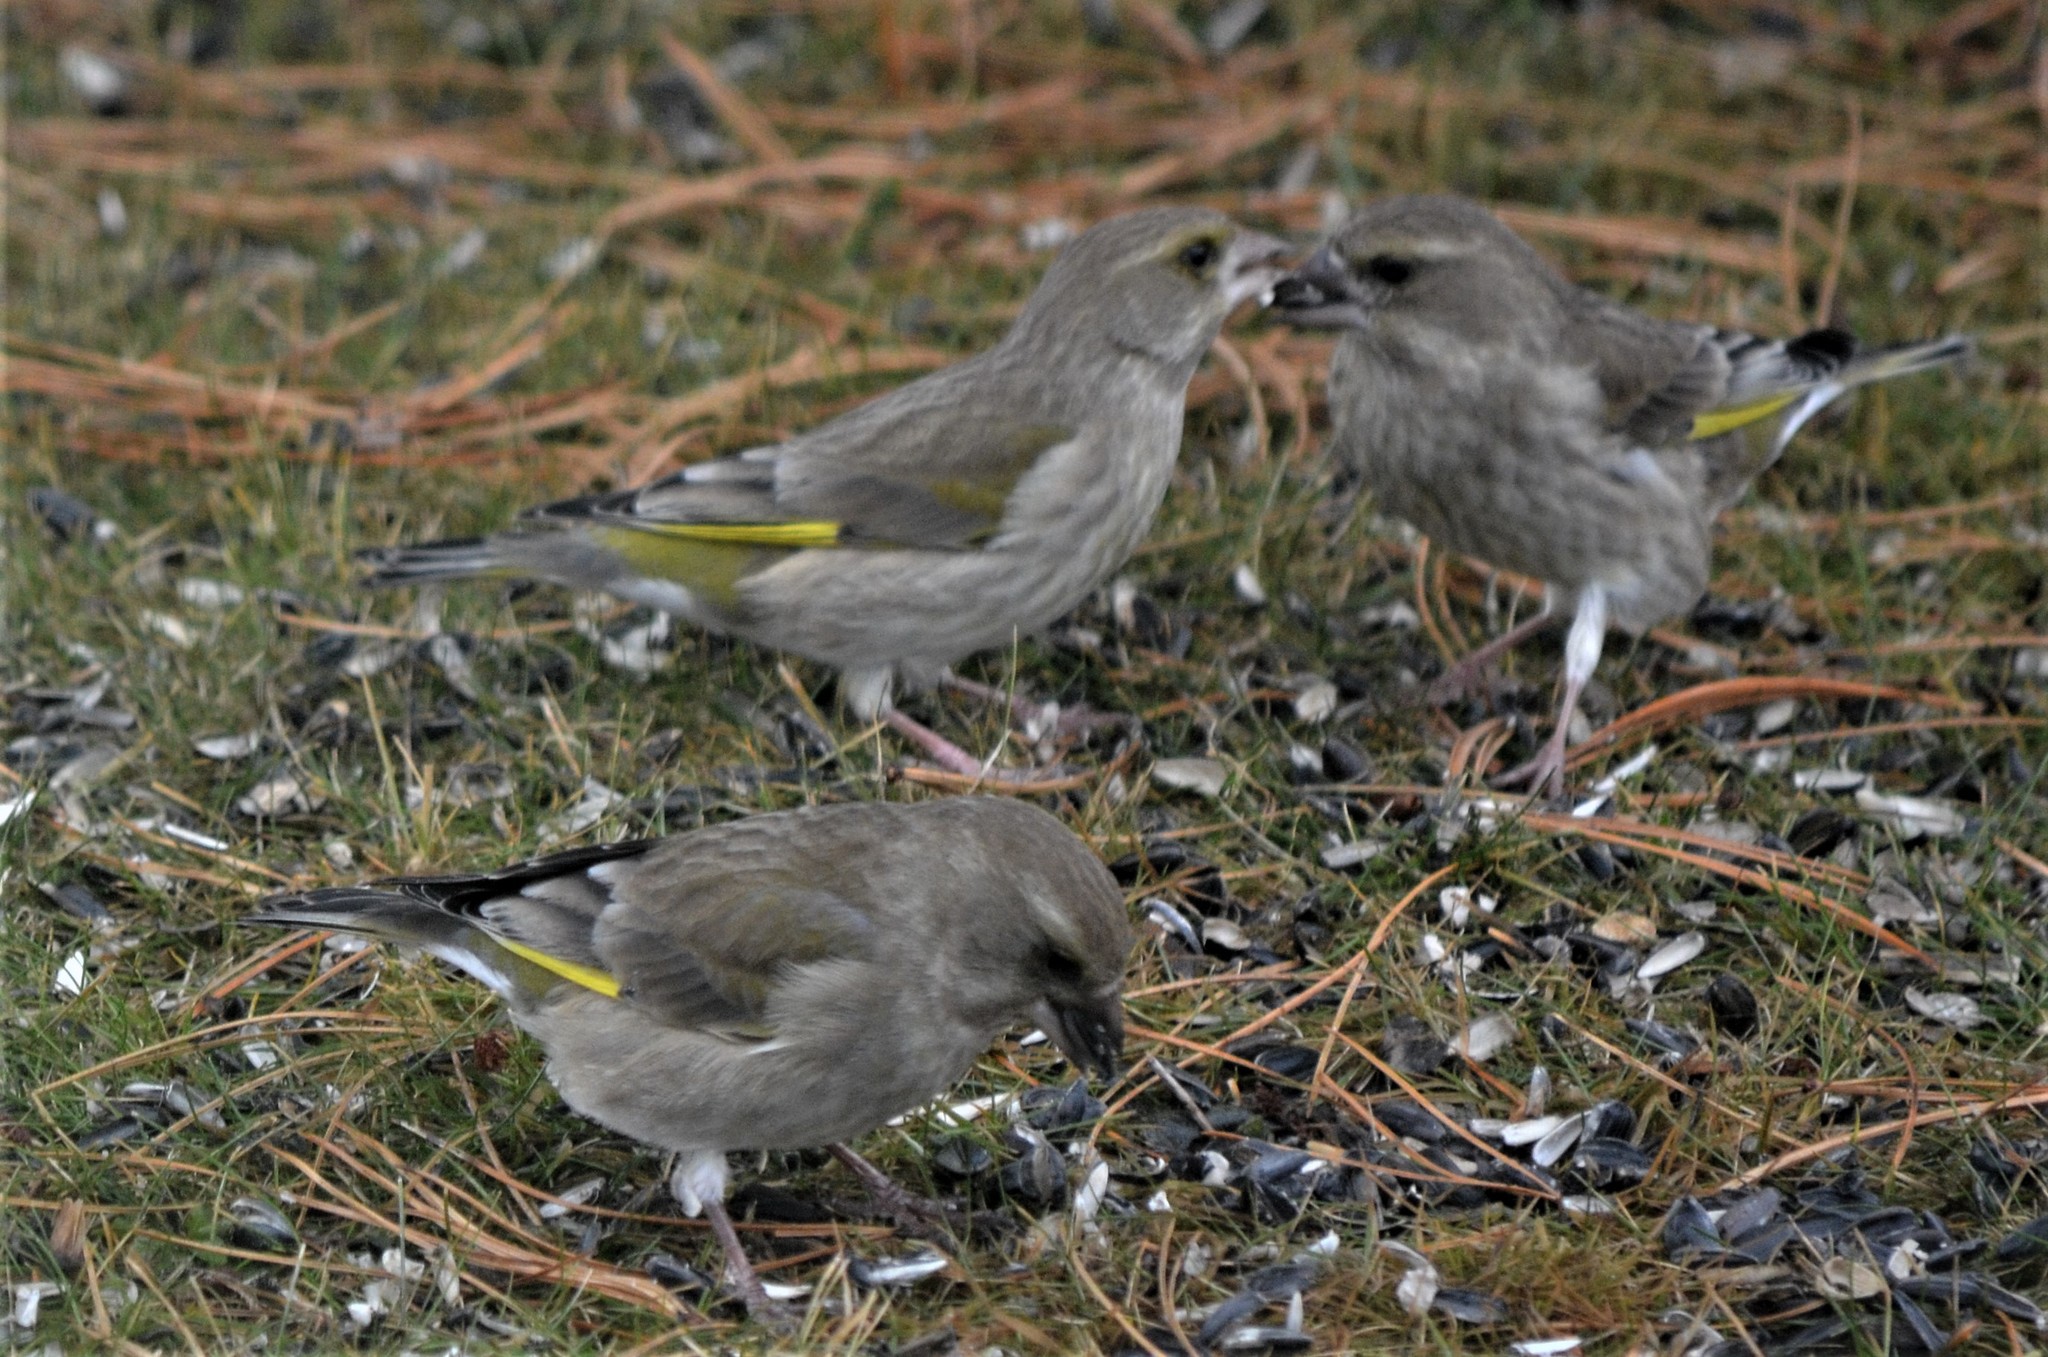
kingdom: Plantae
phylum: Tracheophyta
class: Liliopsida
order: Poales
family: Poaceae
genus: Chloris
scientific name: Chloris chloris
